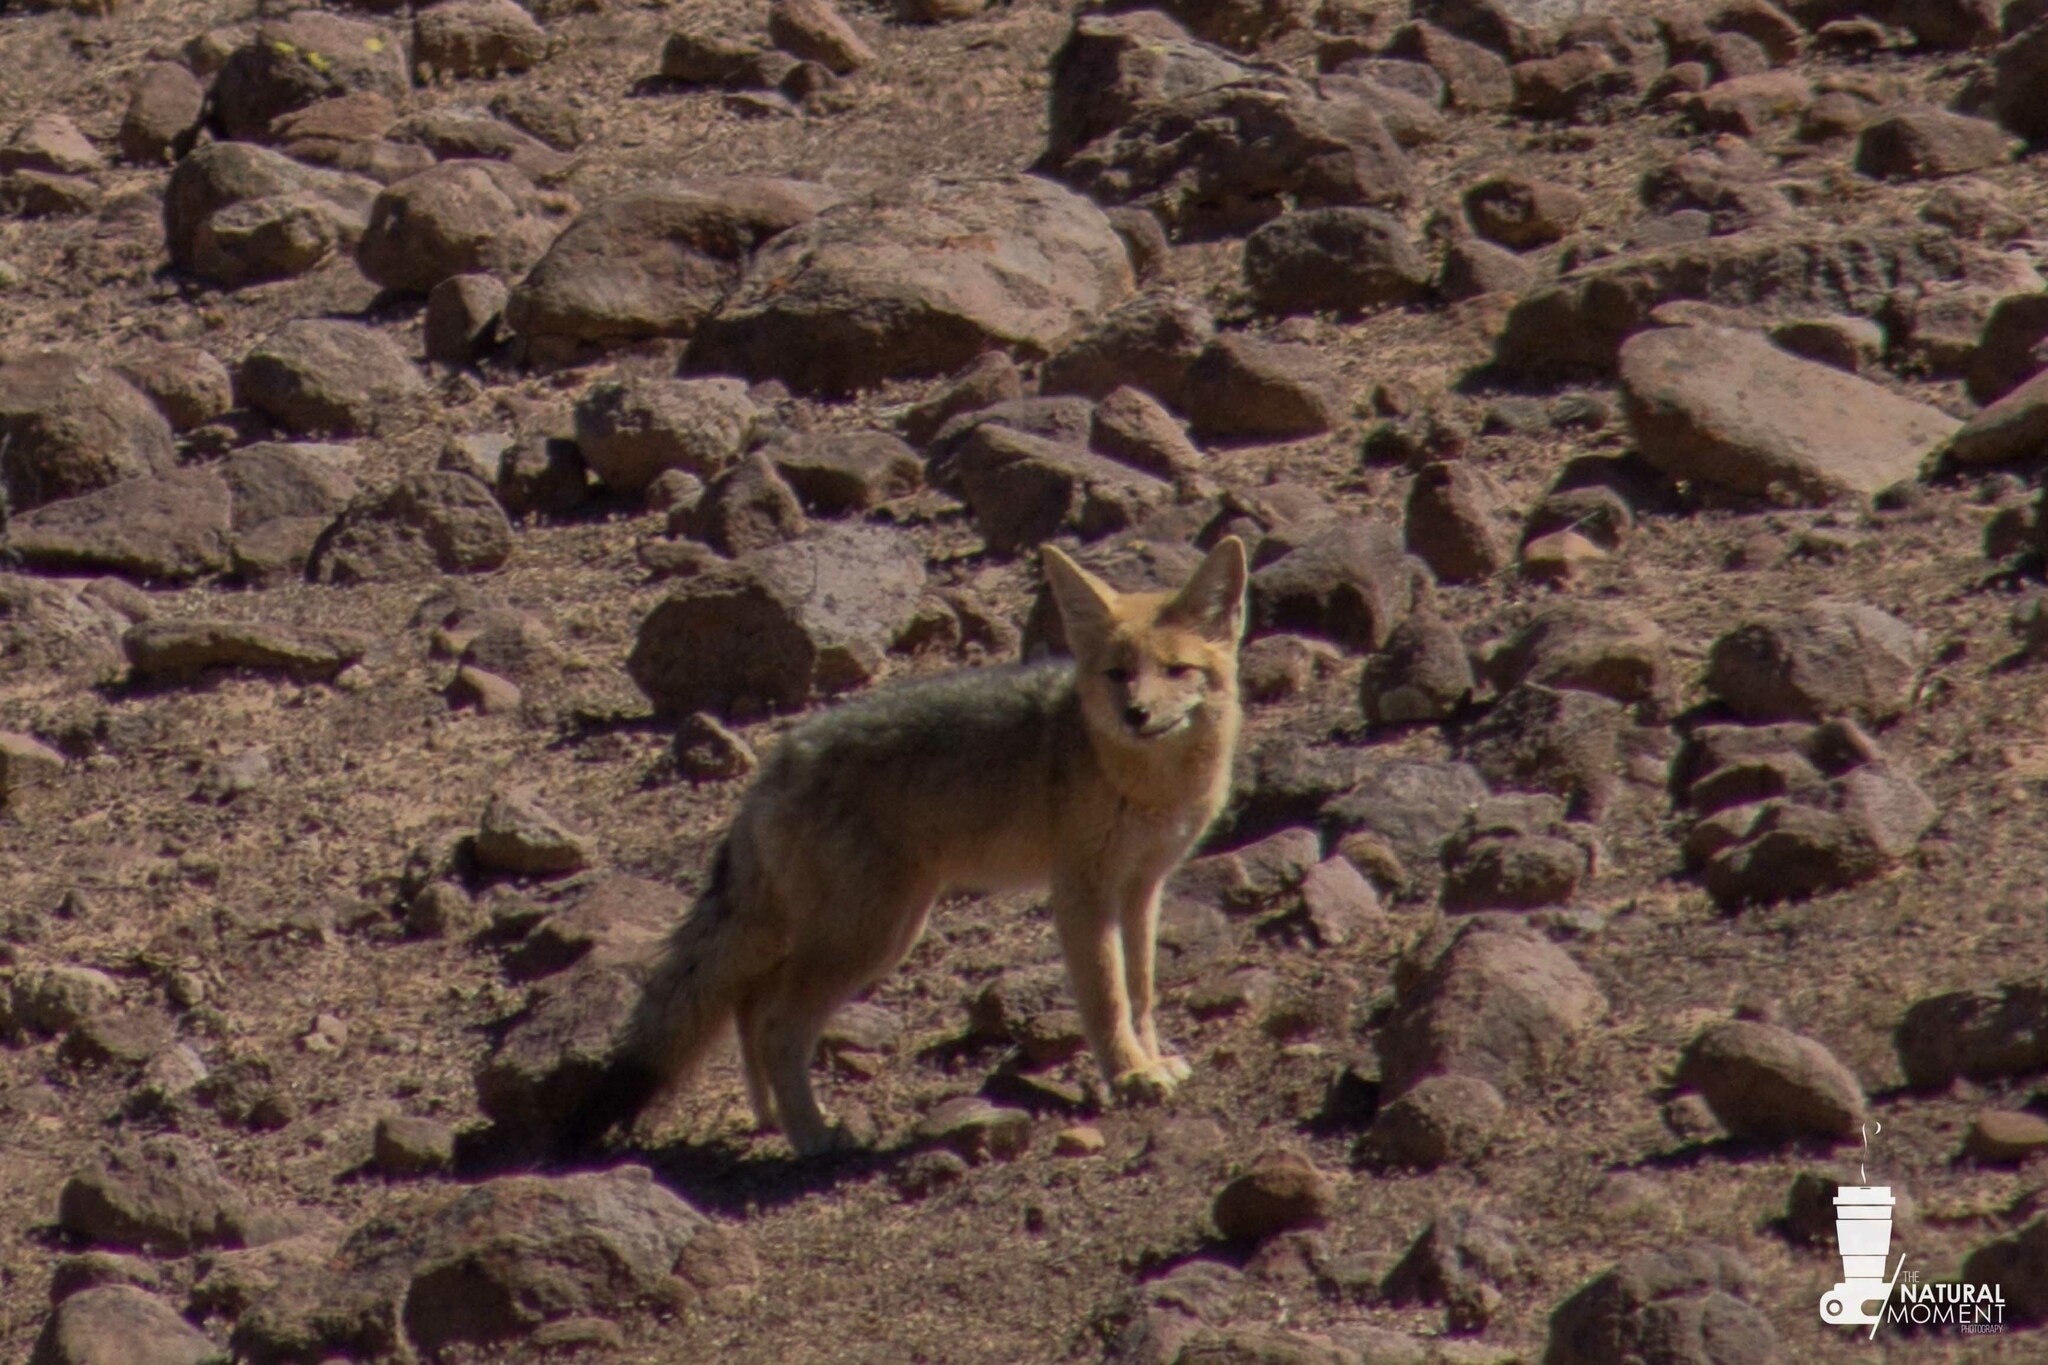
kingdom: Animalia
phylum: Chordata
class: Mammalia
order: Carnivora
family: Canidae
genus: Lycalopex
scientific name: Lycalopex culpaeus
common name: Culpeo
